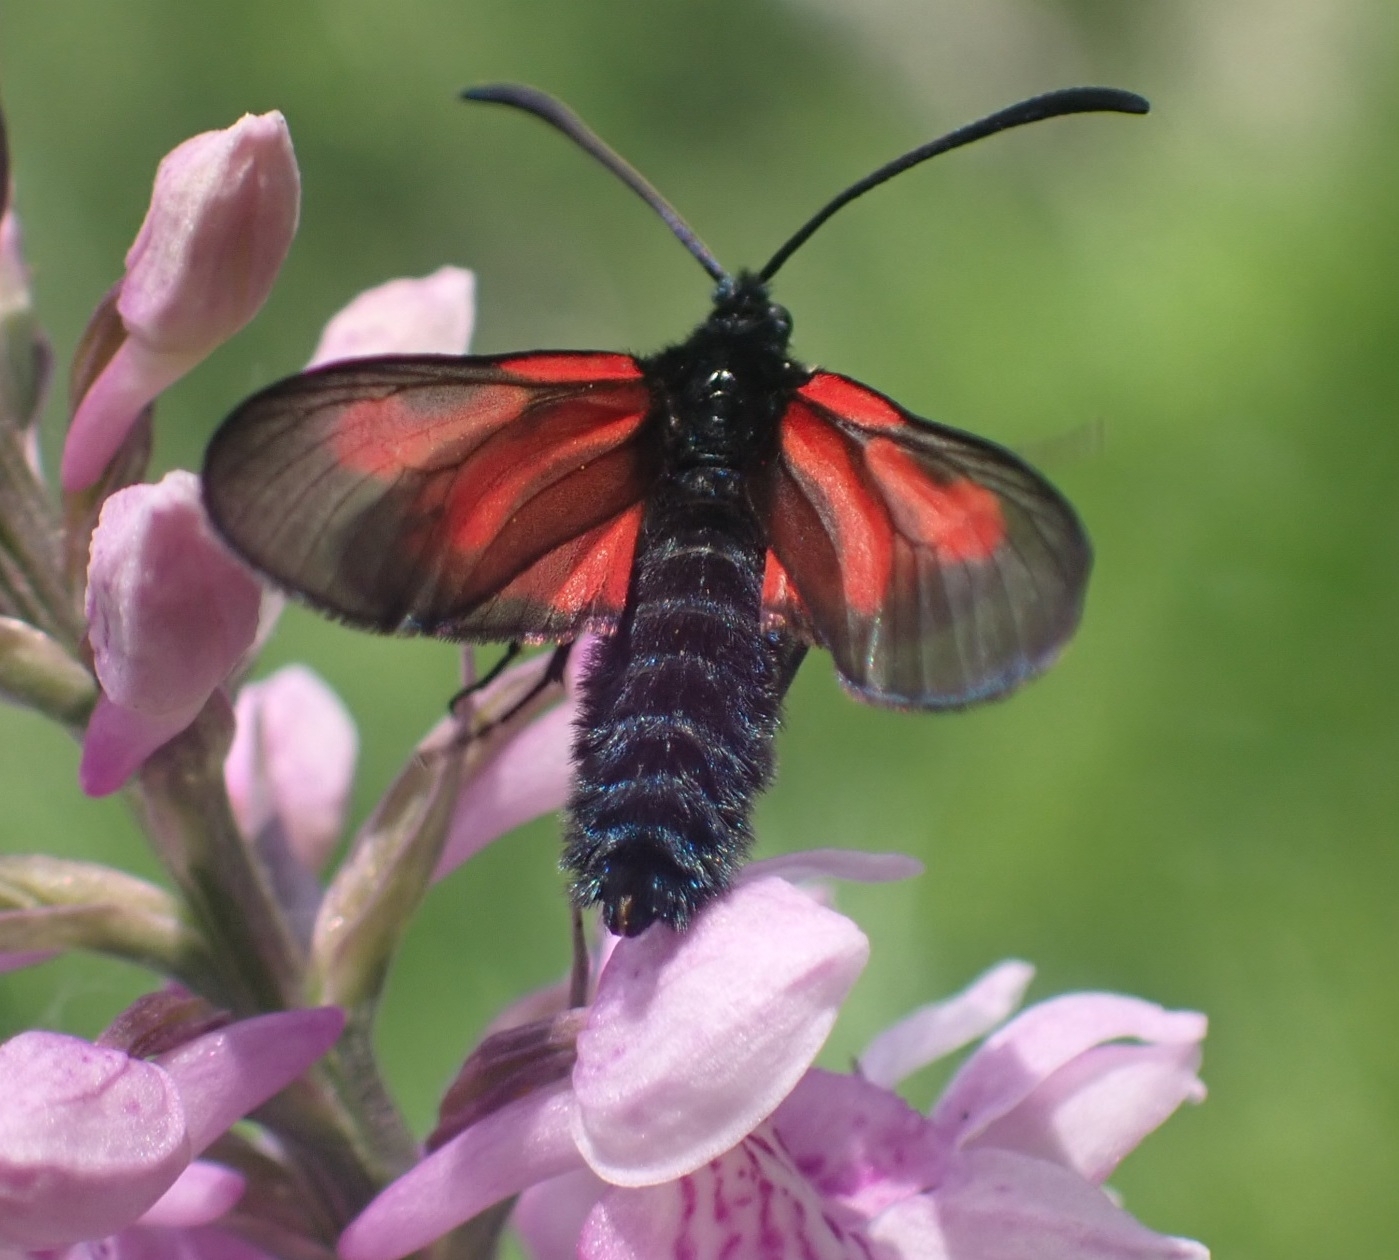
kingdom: Animalia
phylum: Arthropoda
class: Insecta
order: Lepidoptera
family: Zygaenidae
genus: Zygaena
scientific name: Zygaena osterodensis
